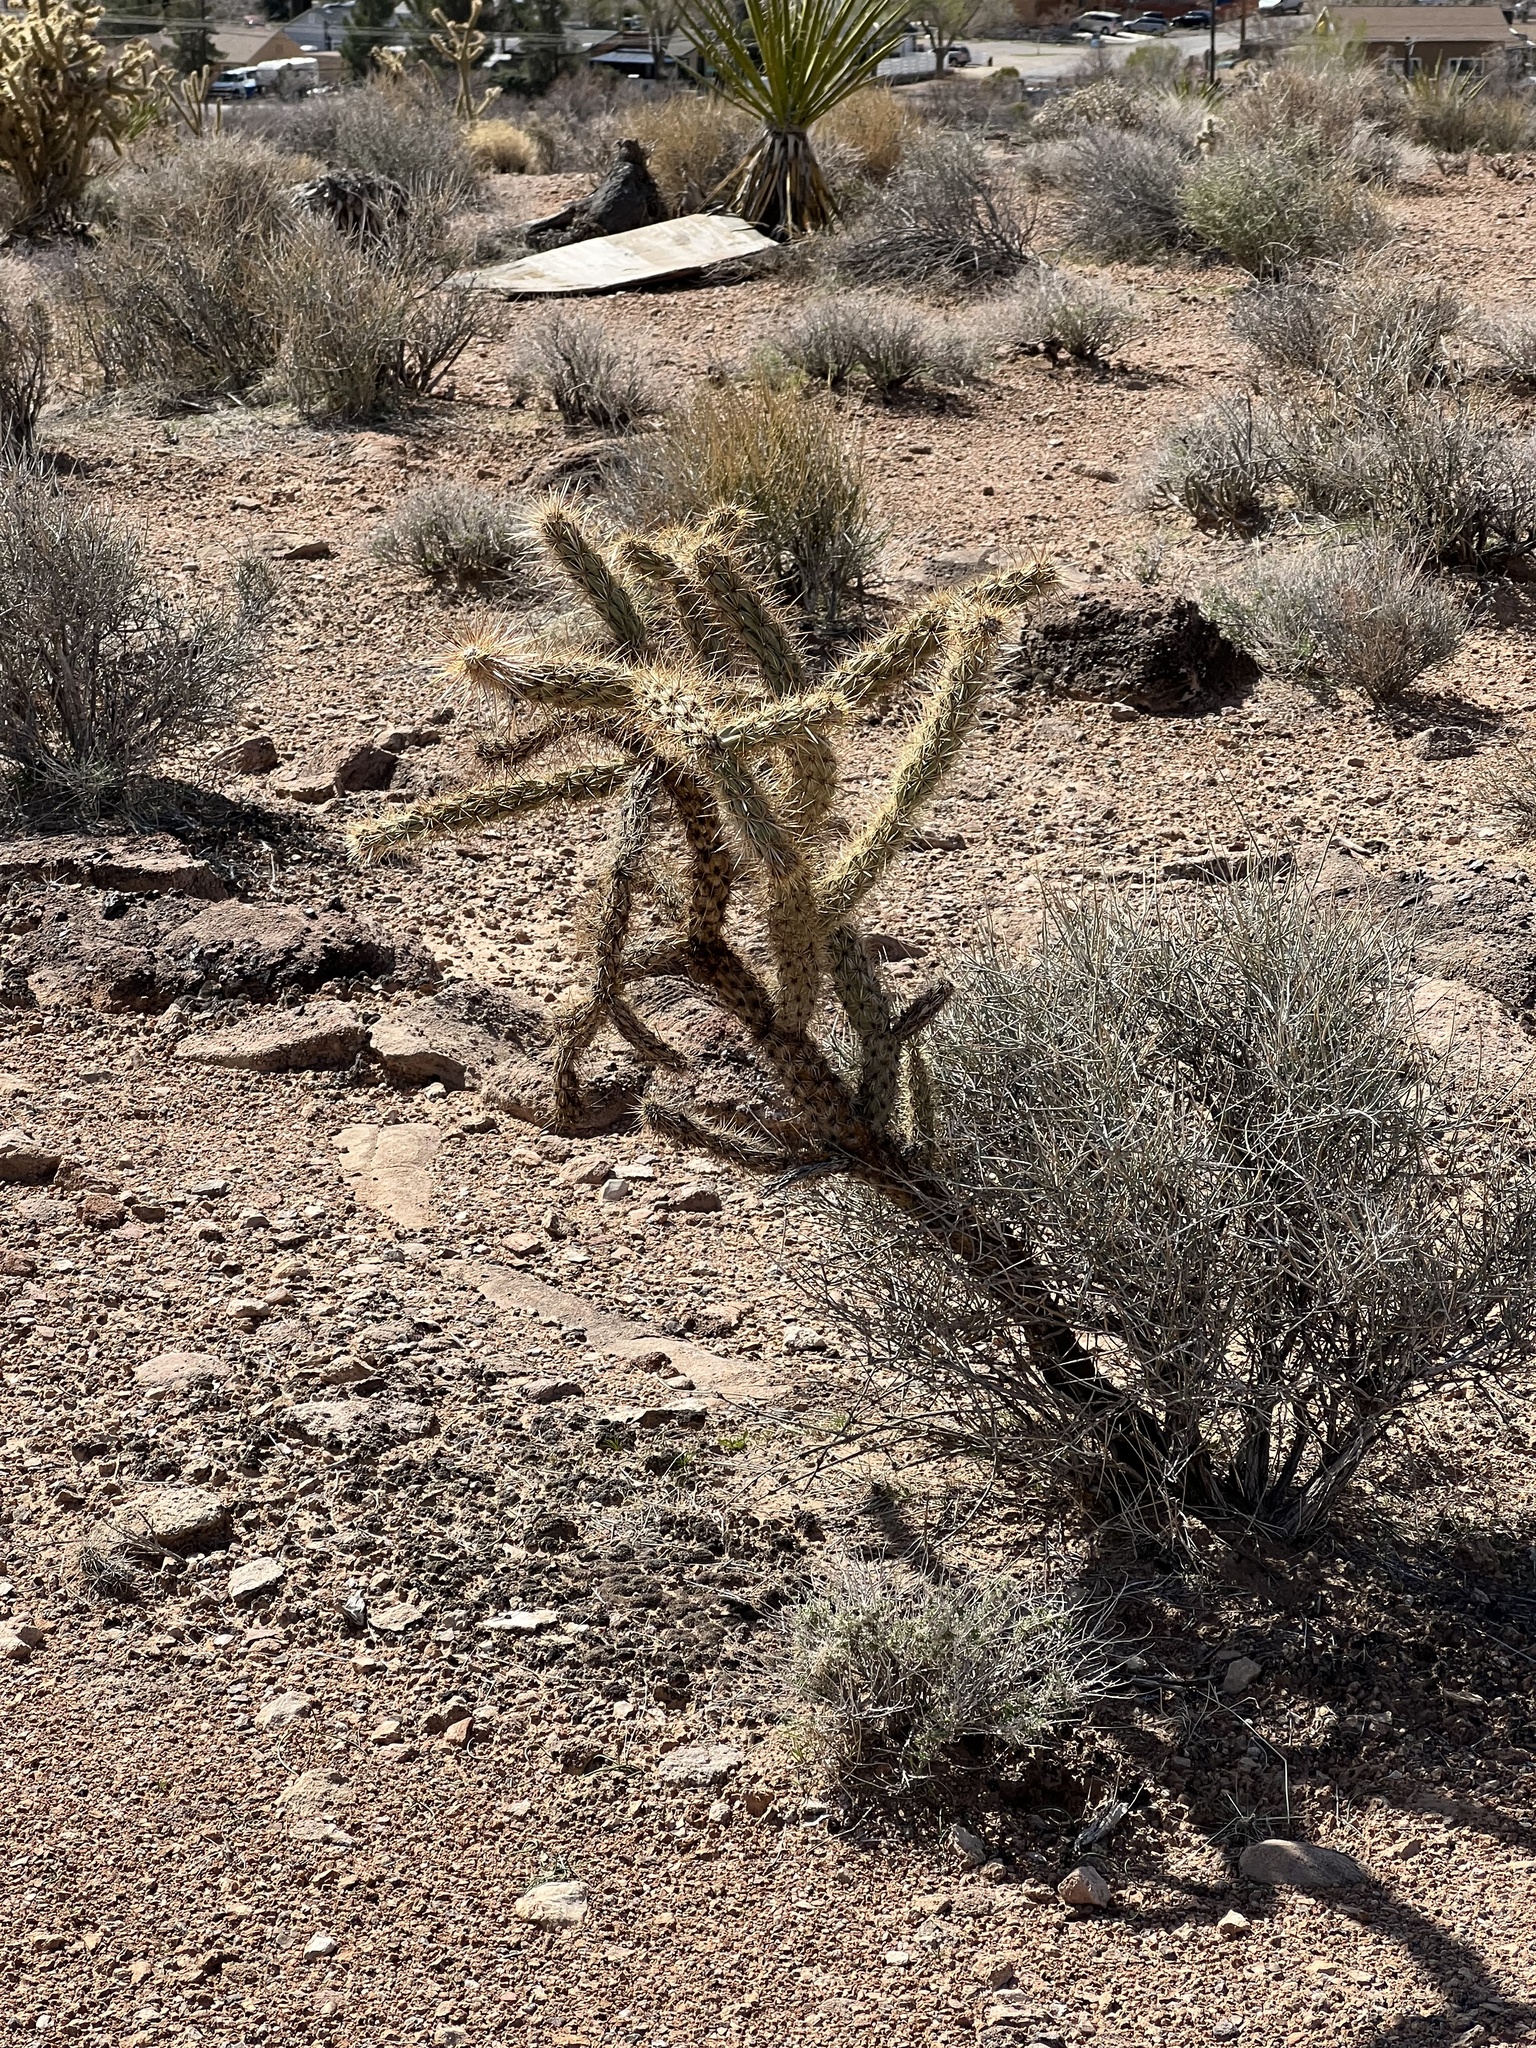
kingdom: Plantae
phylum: Tracheophyta
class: Magnoliopsida
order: Caryophyllales
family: Cactaceae
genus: Cylindropuntia
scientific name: Cylindropuntia acanthocarpa
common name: Buckhorn cholla
